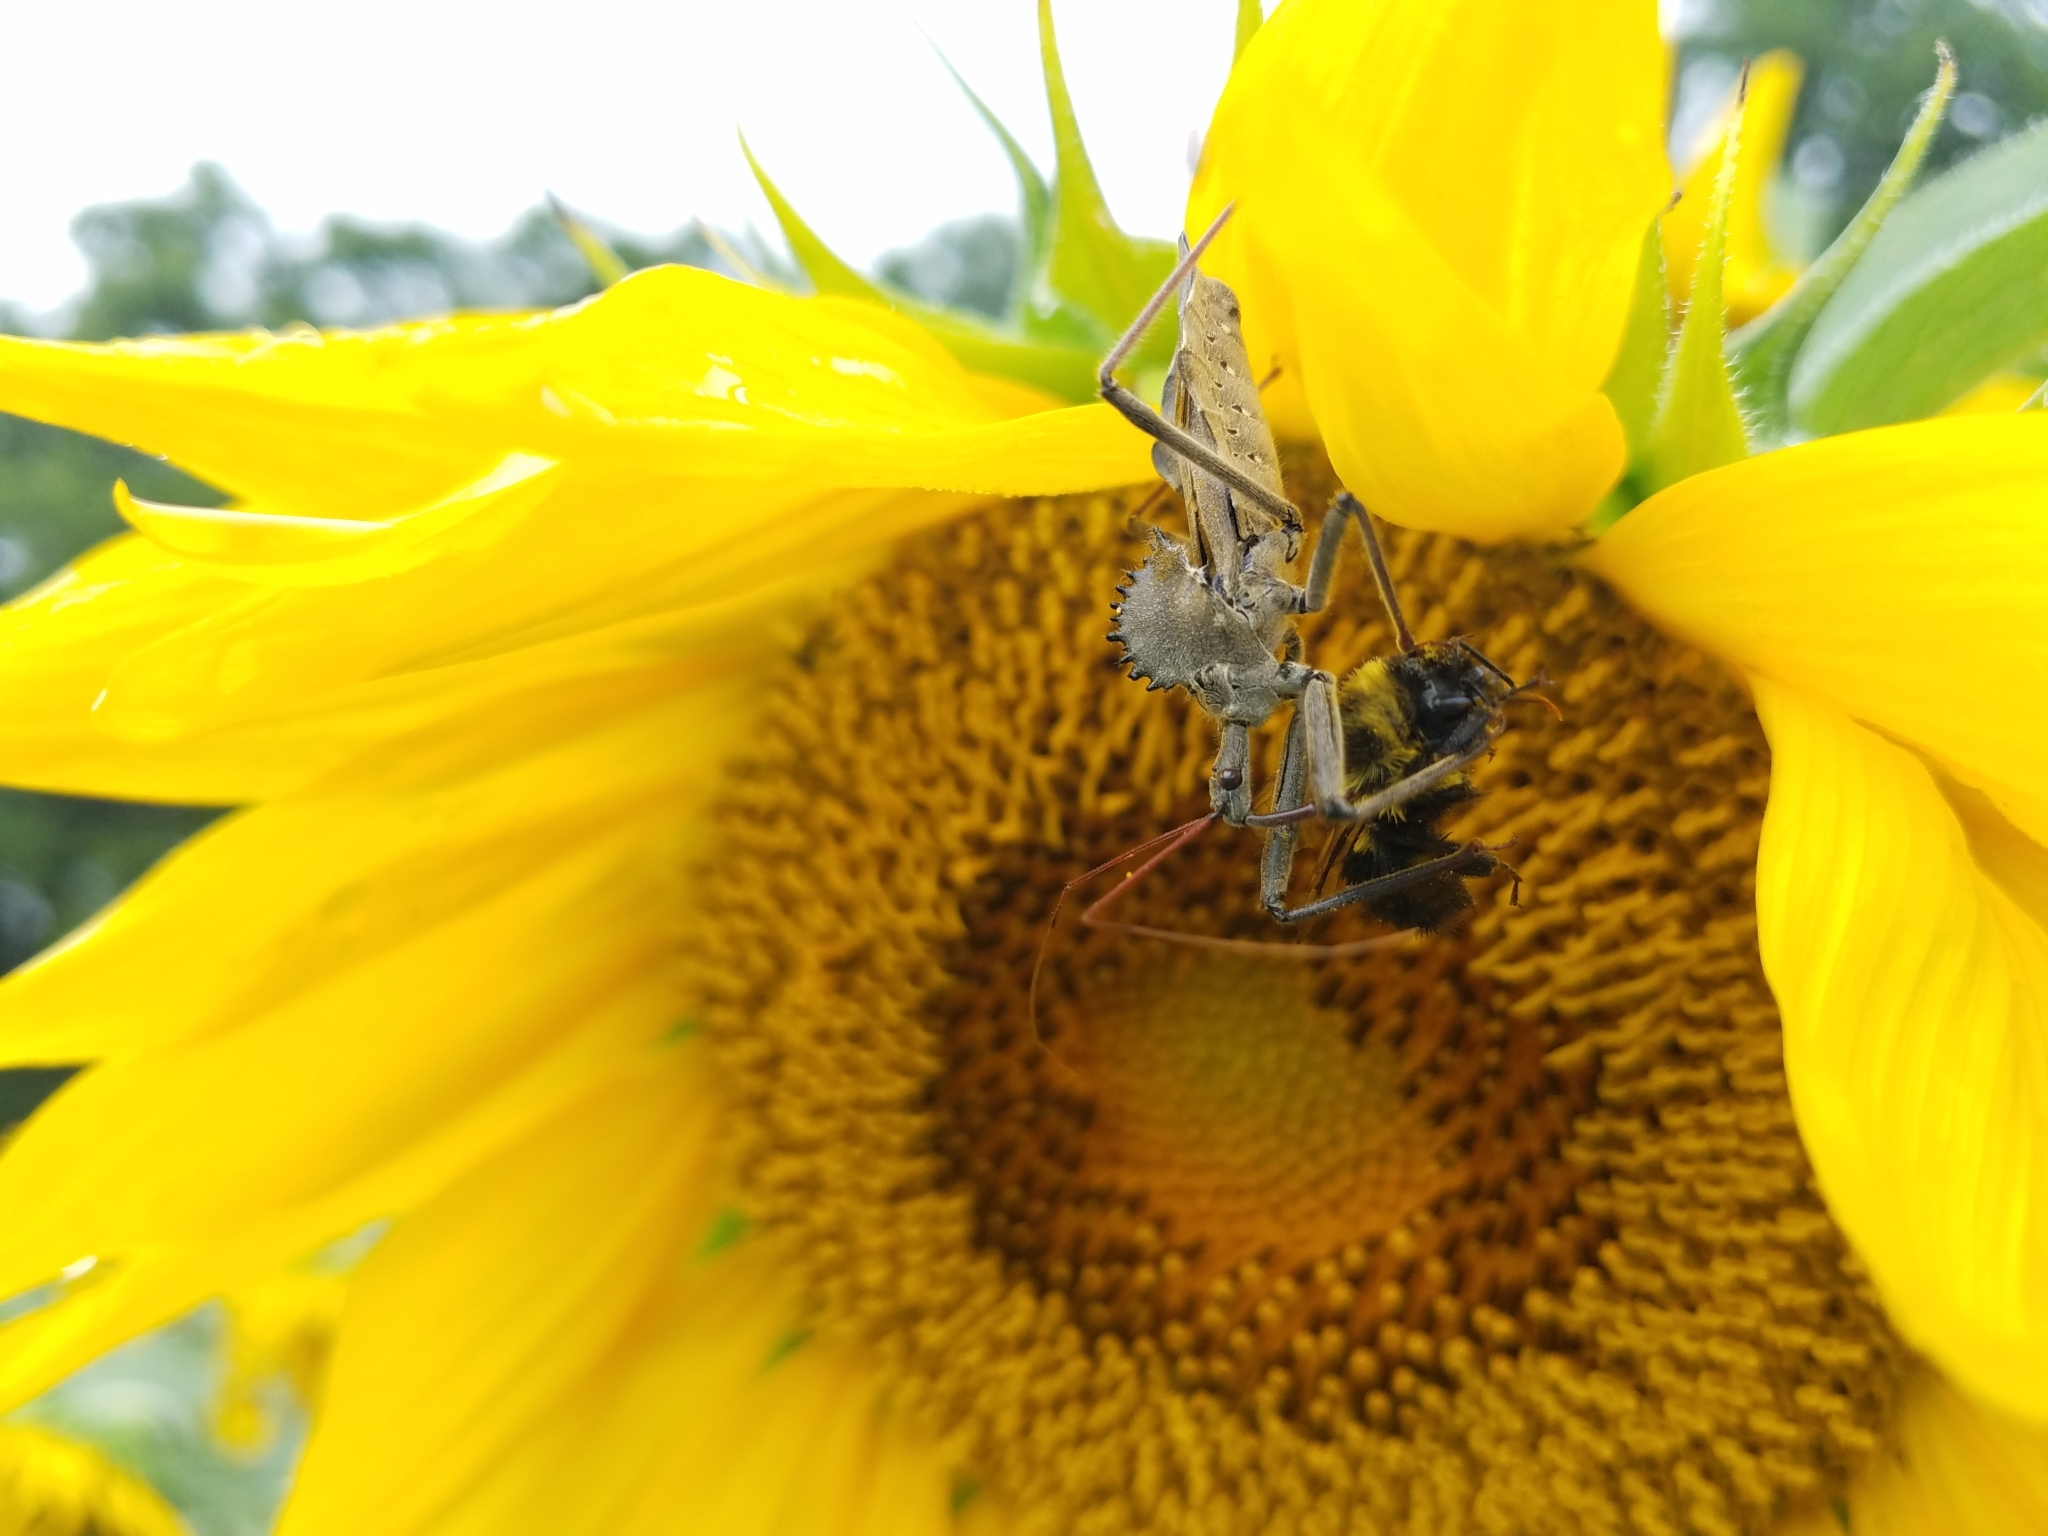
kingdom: Animalia
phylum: Arthropoda
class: Insecta
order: Hemiptera
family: Reduviidae
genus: Arilus
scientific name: Arilus cristatus
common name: North american wheel bug
